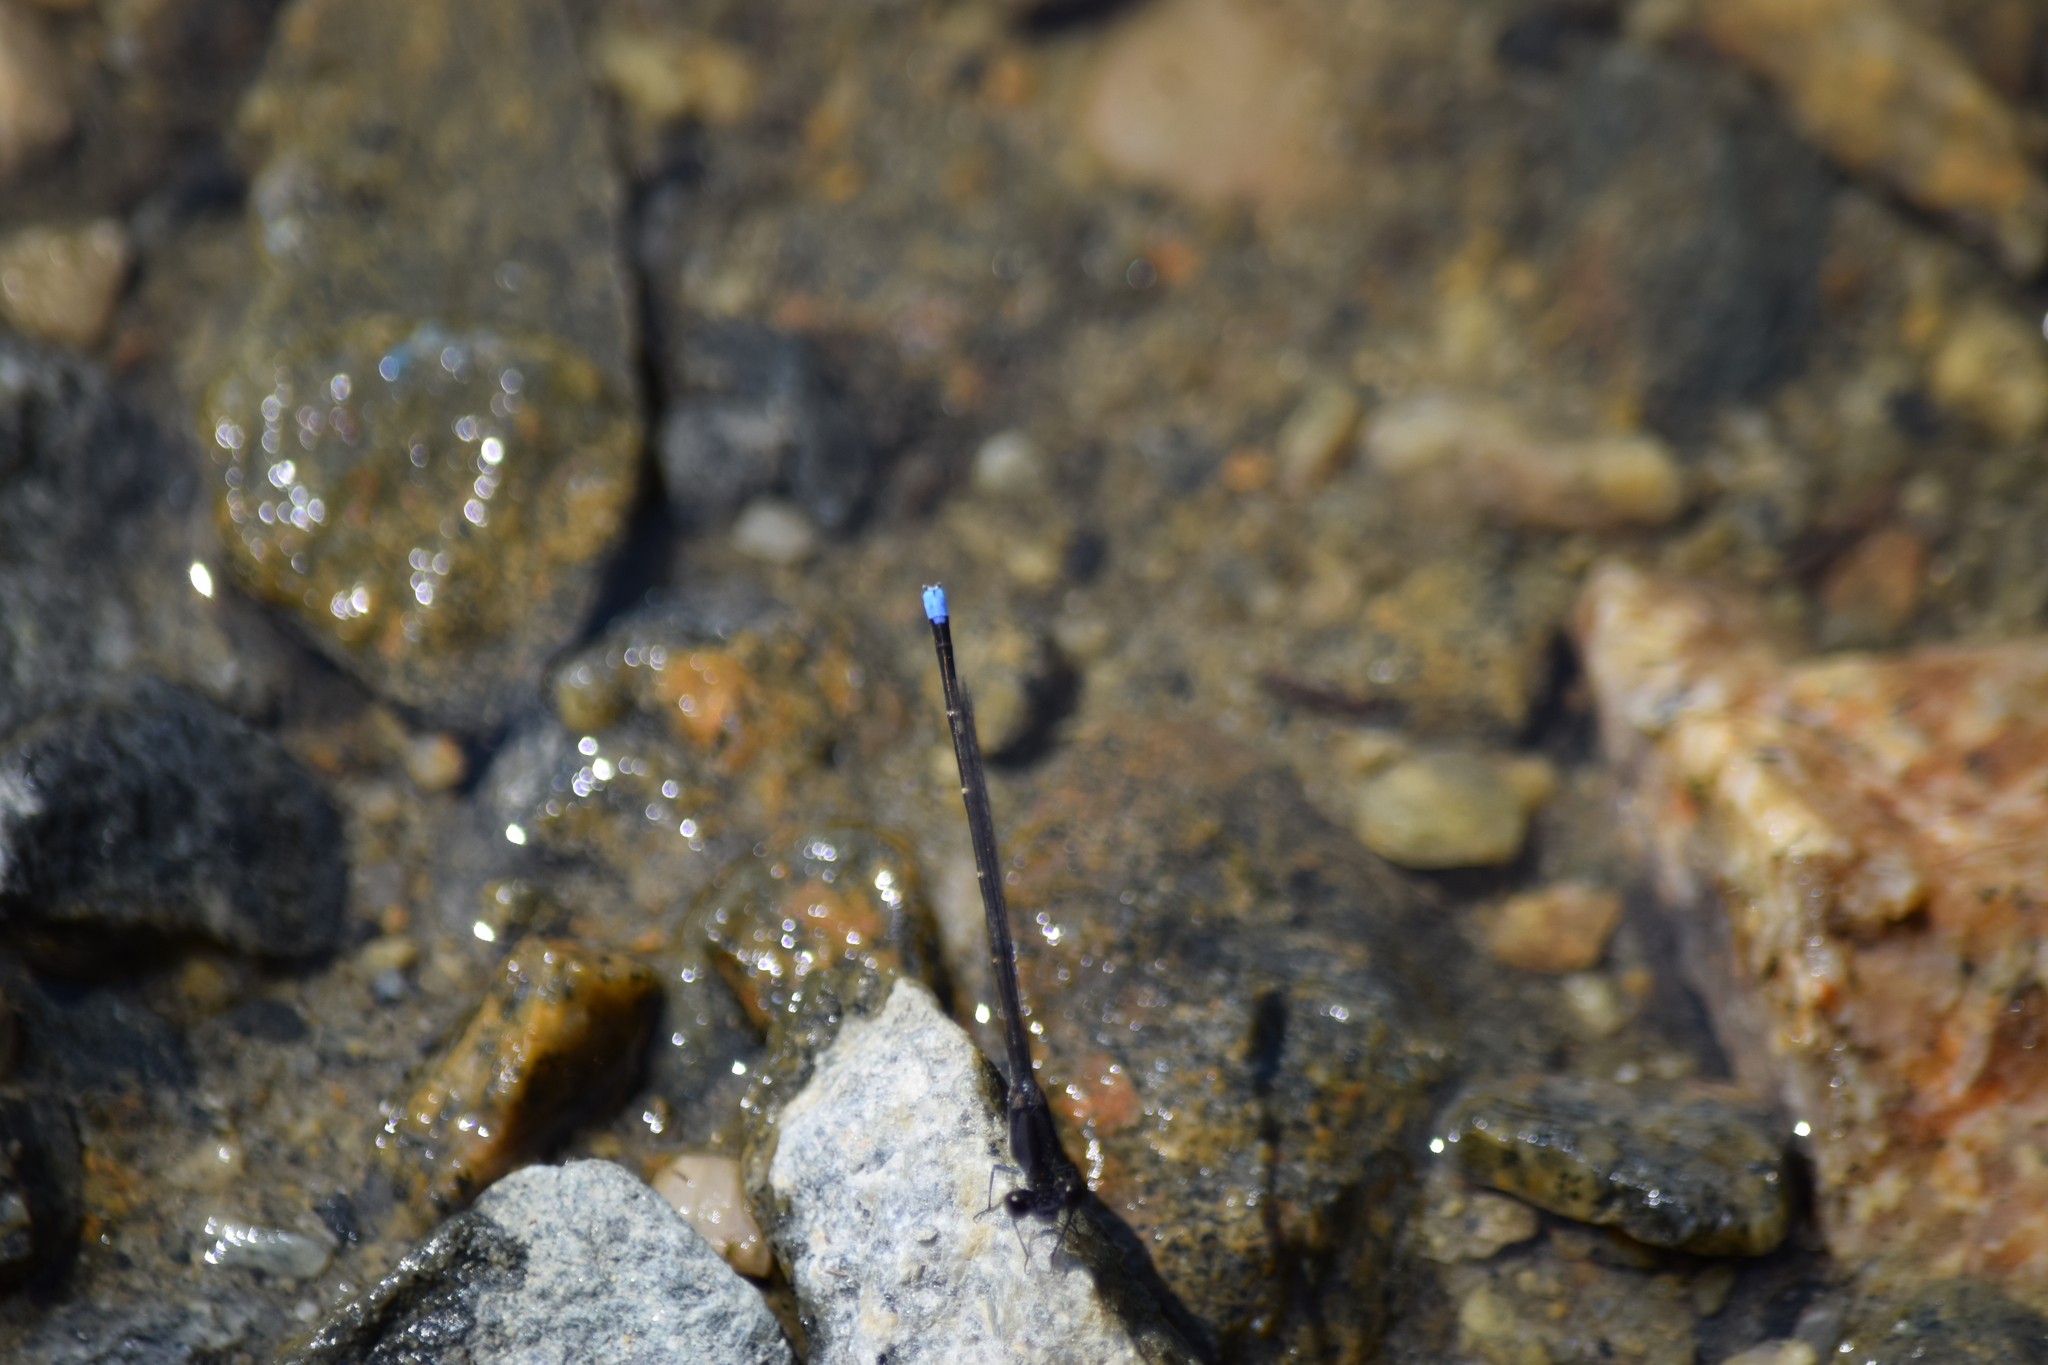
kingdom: Animalia
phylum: Arthropoda
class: Insecta
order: Odonata
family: Coenagrionidae
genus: Argia
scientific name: Argia tibialis
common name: Blue-tipped dancer
